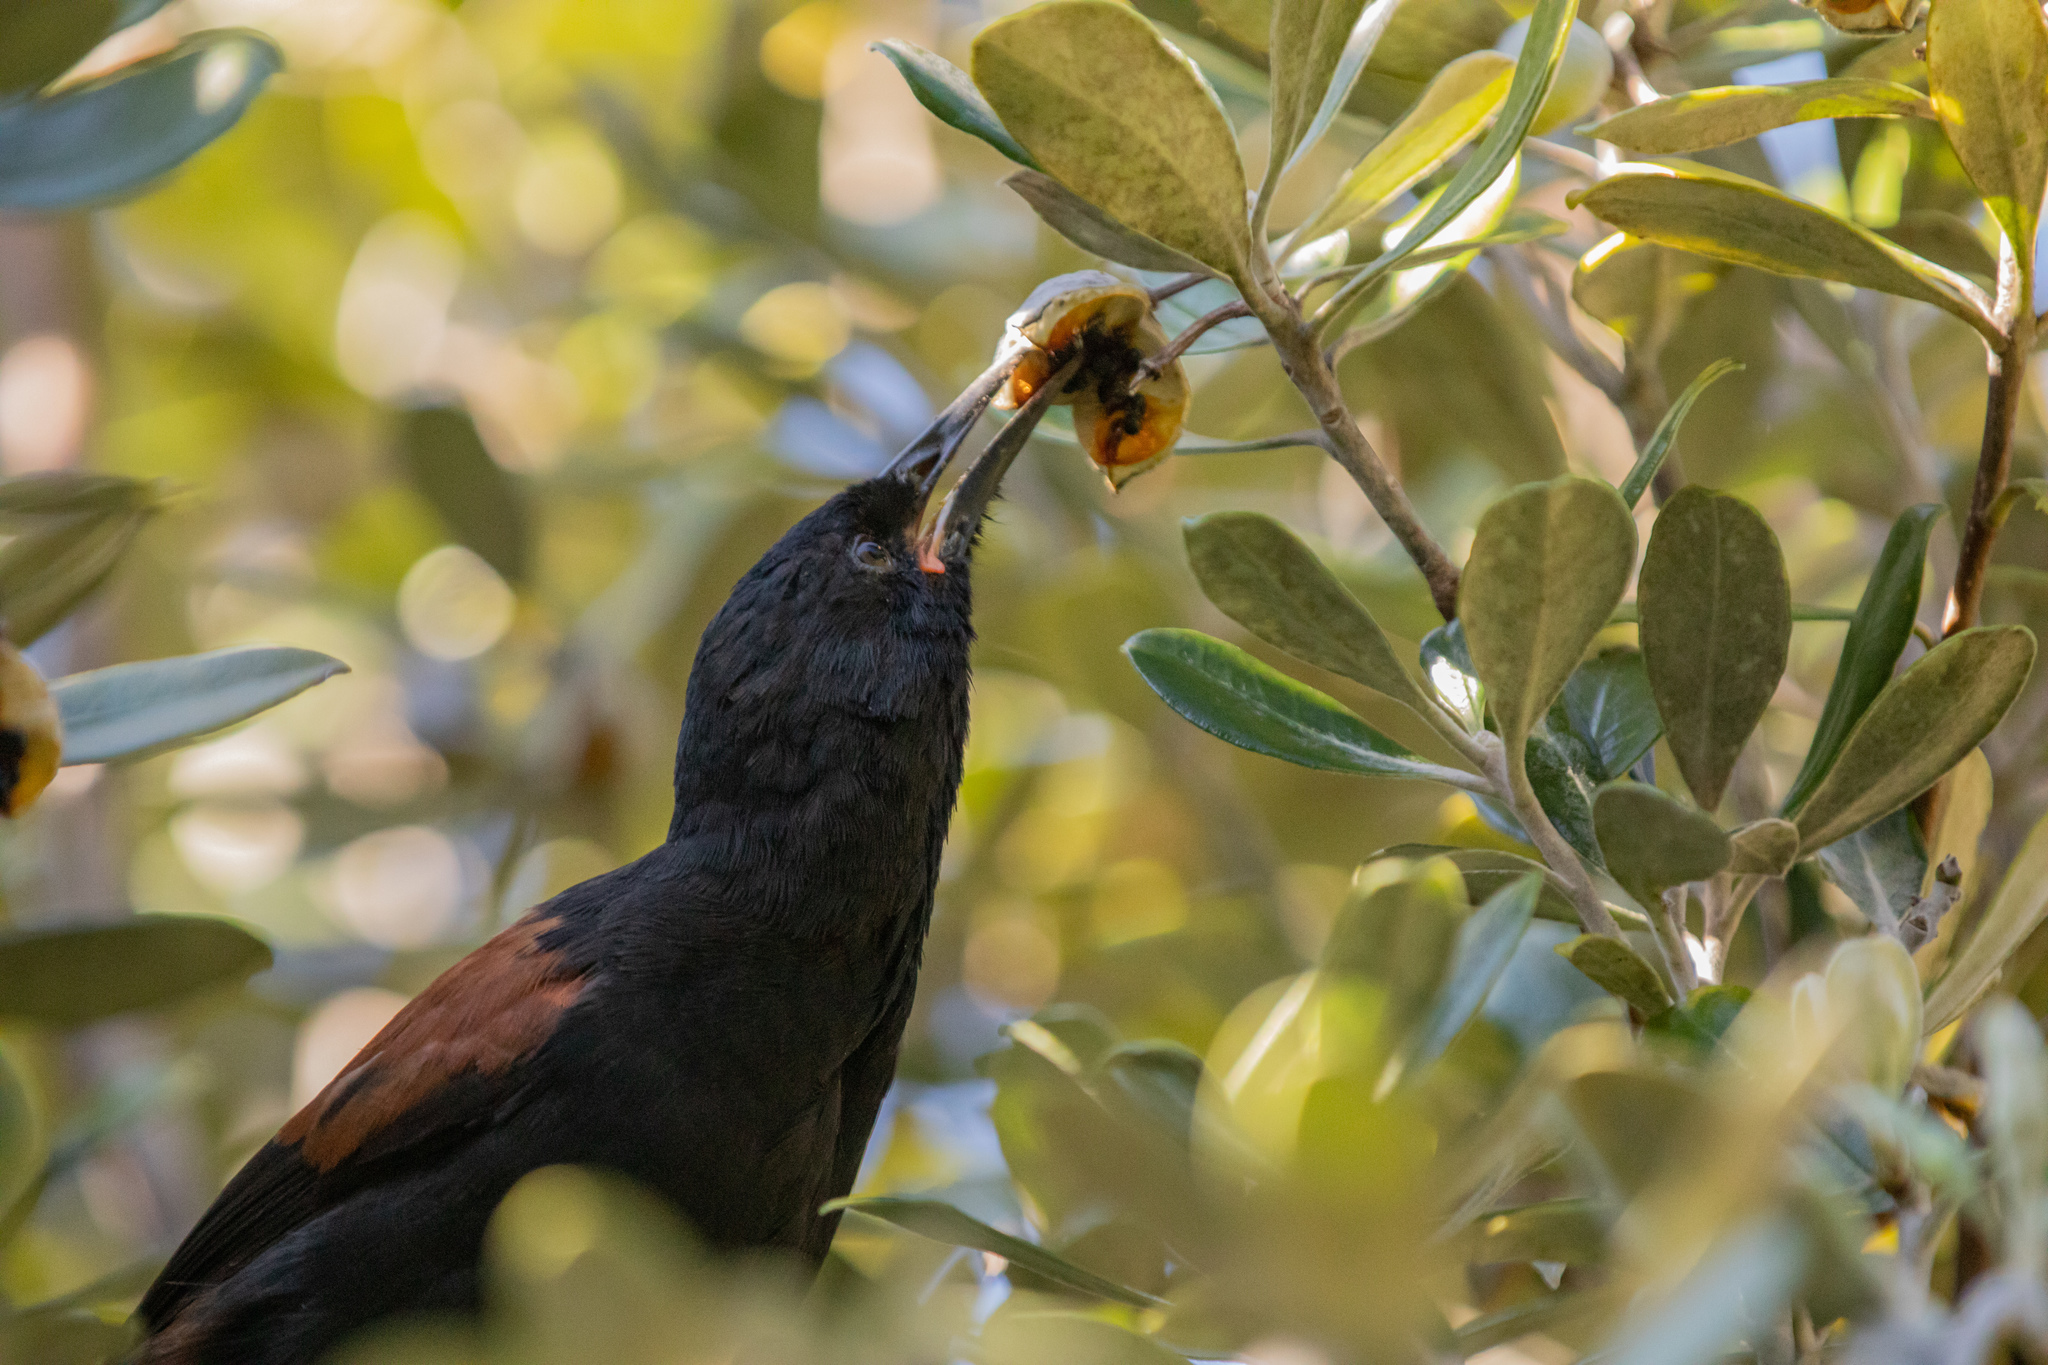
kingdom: Animalia
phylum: Chordata
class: Aves
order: Passeriformes
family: Callaeatidae
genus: Philesturnus
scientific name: Philesturnus carunculatus
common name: South island saddleback
